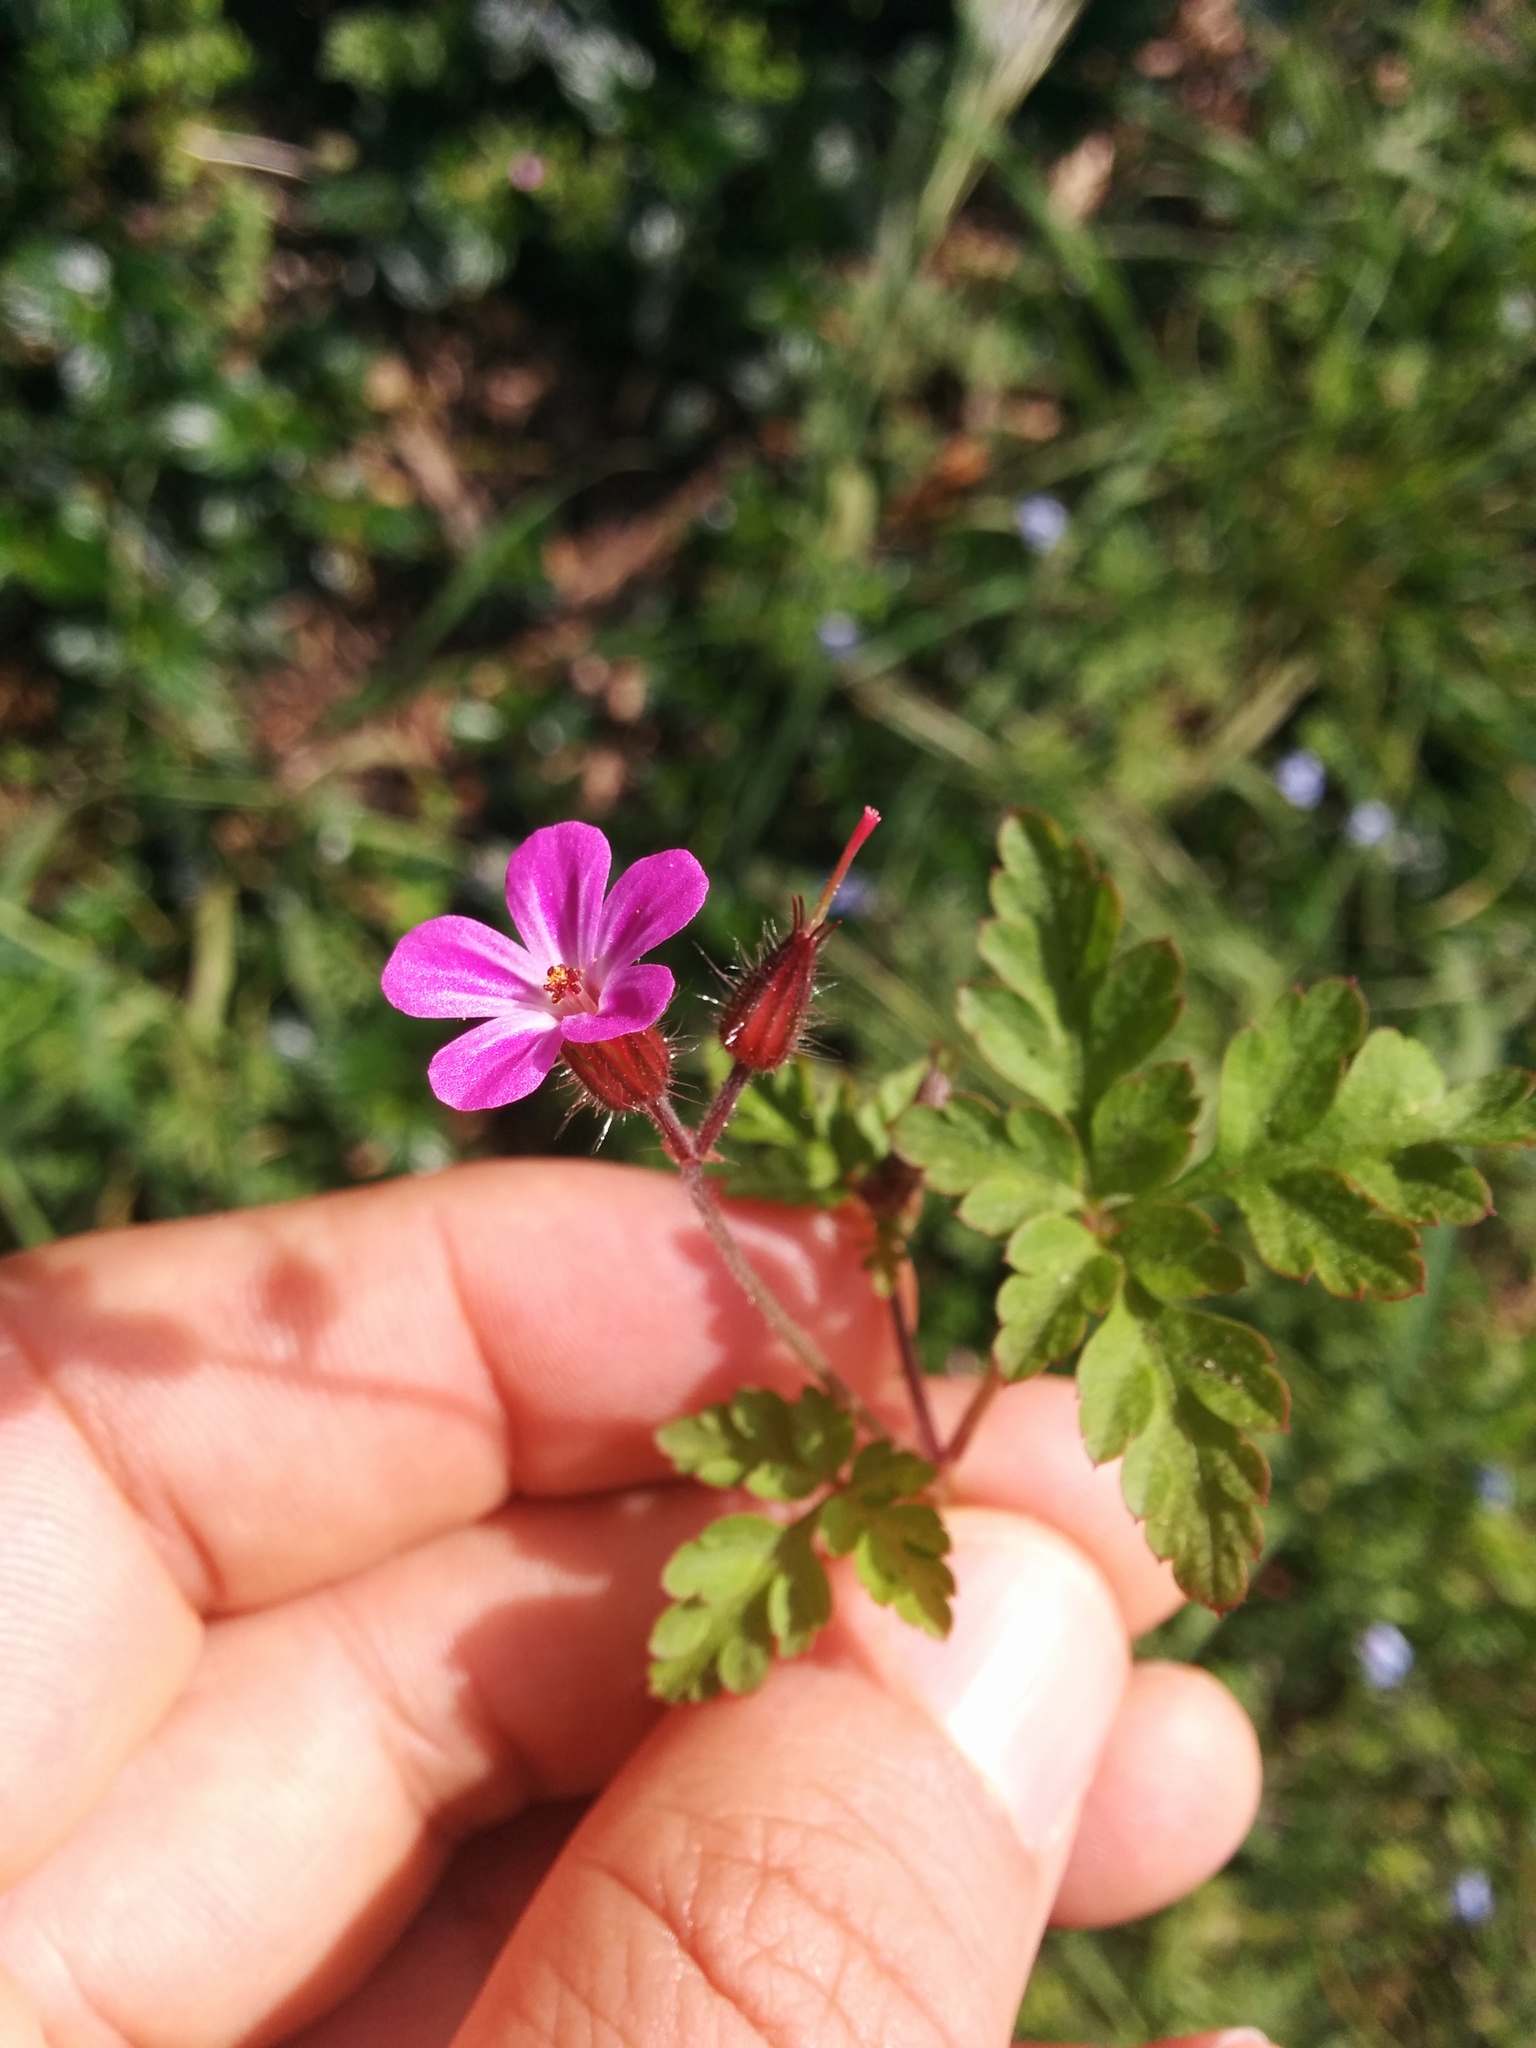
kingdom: Plantae
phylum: Tracheophyta
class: Magnoliopsida
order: Geraniales
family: Geraniaceae
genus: Geranium
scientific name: Geranium robertianum
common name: Herb-robert
